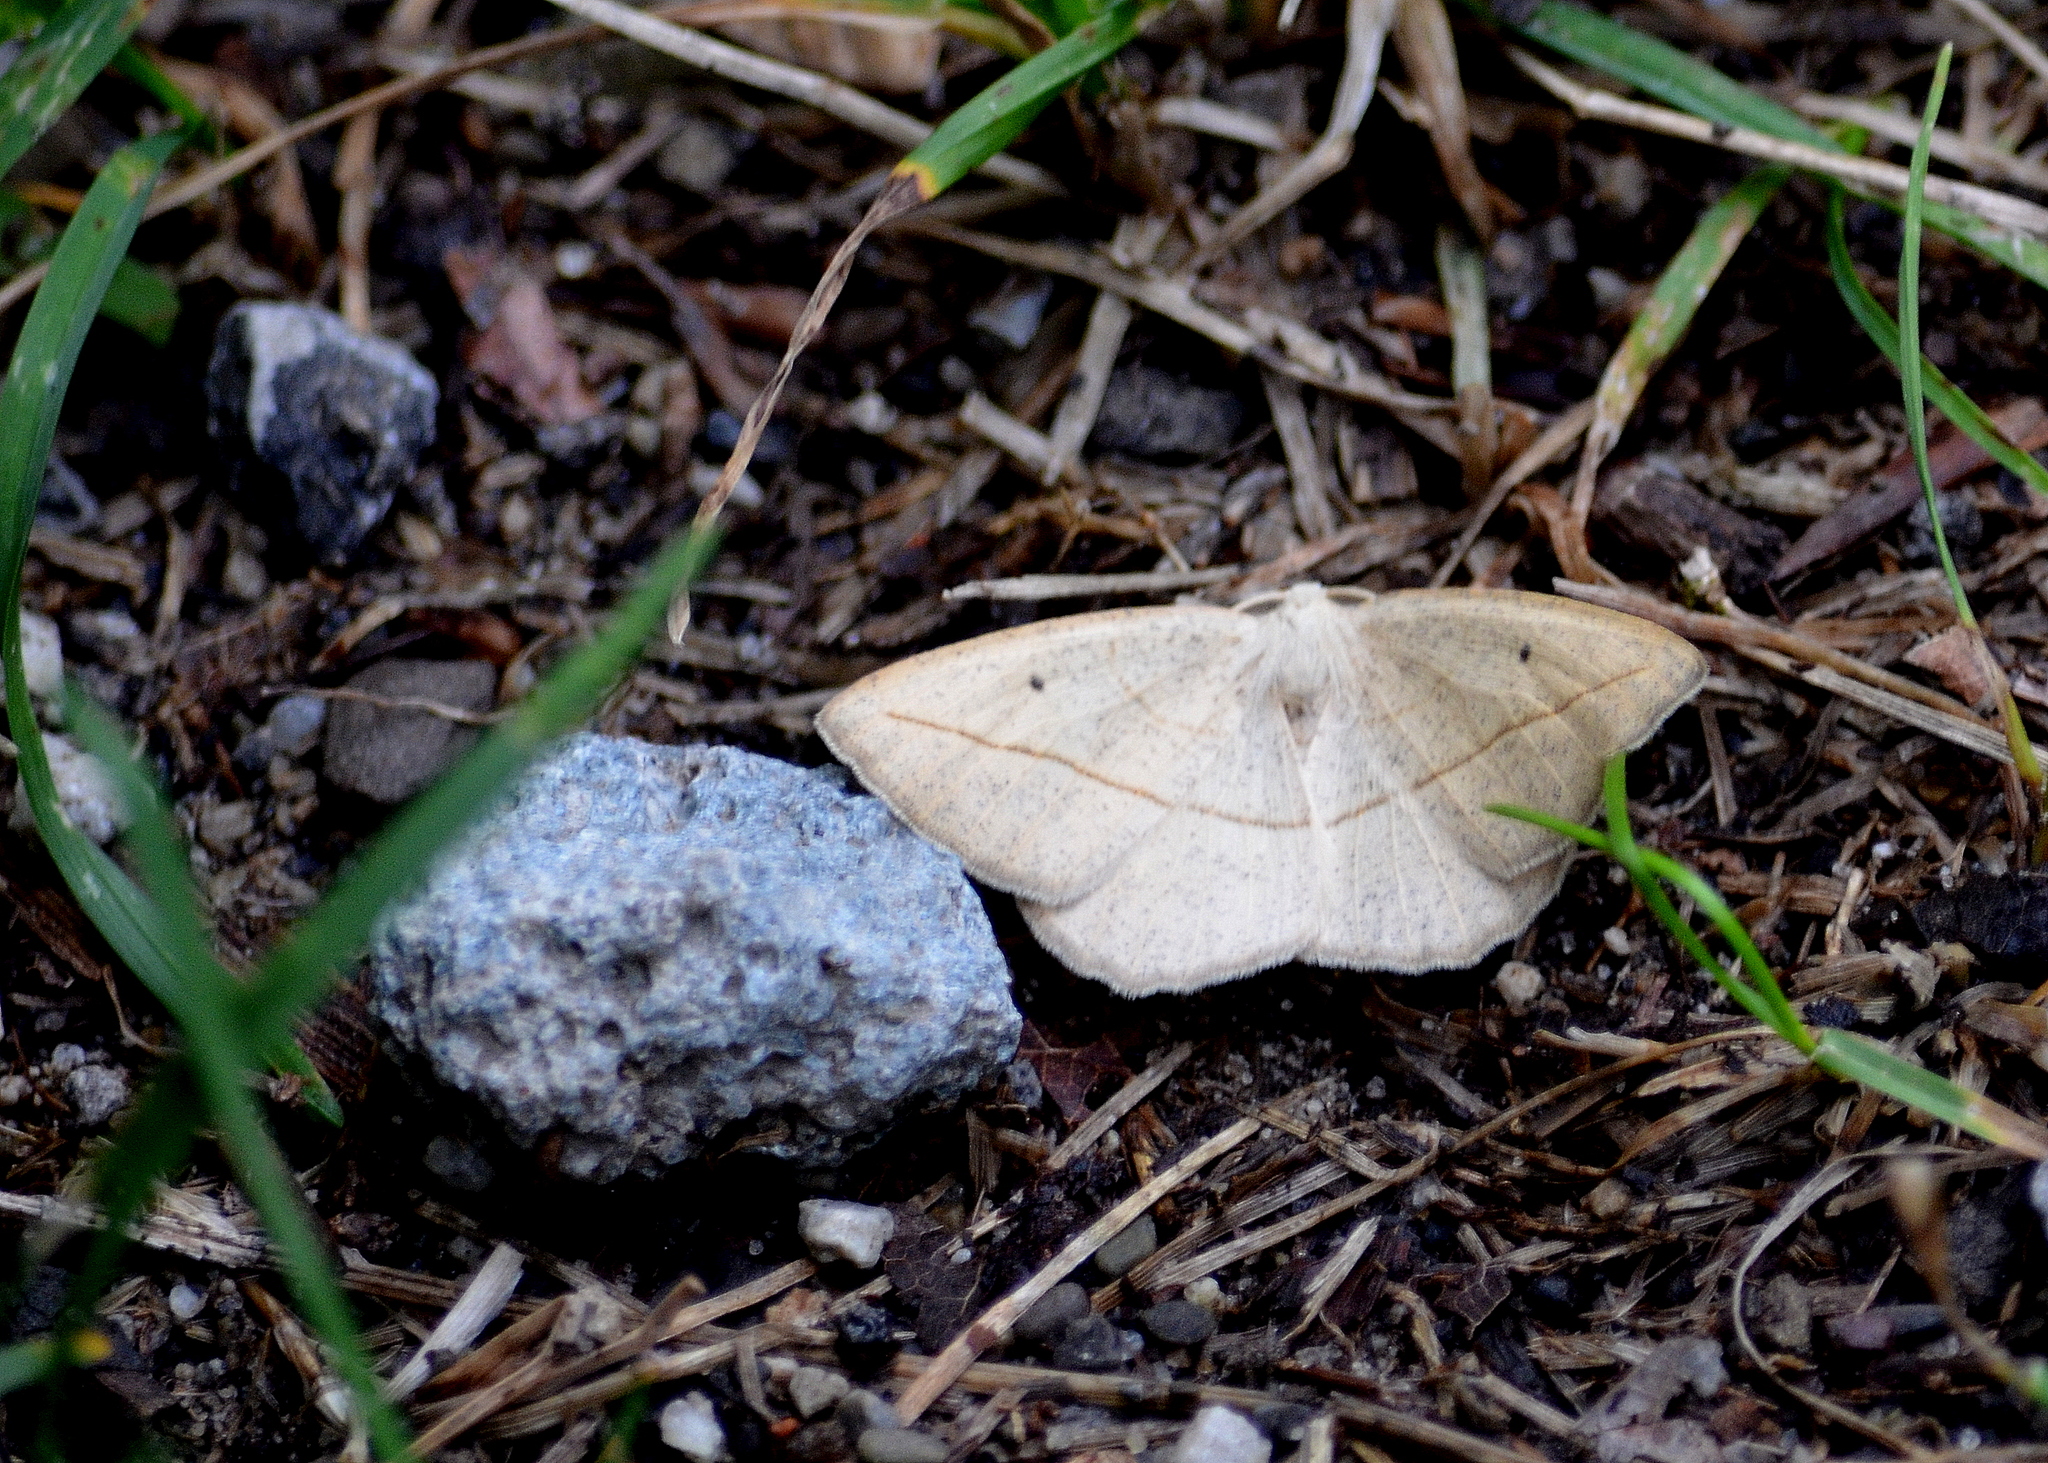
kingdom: Animalia
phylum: Arthropoda
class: Insecta
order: Lepidoptera
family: Geometridae
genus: Eusarca
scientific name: Eusarca confusaria
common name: Confused eusarca
